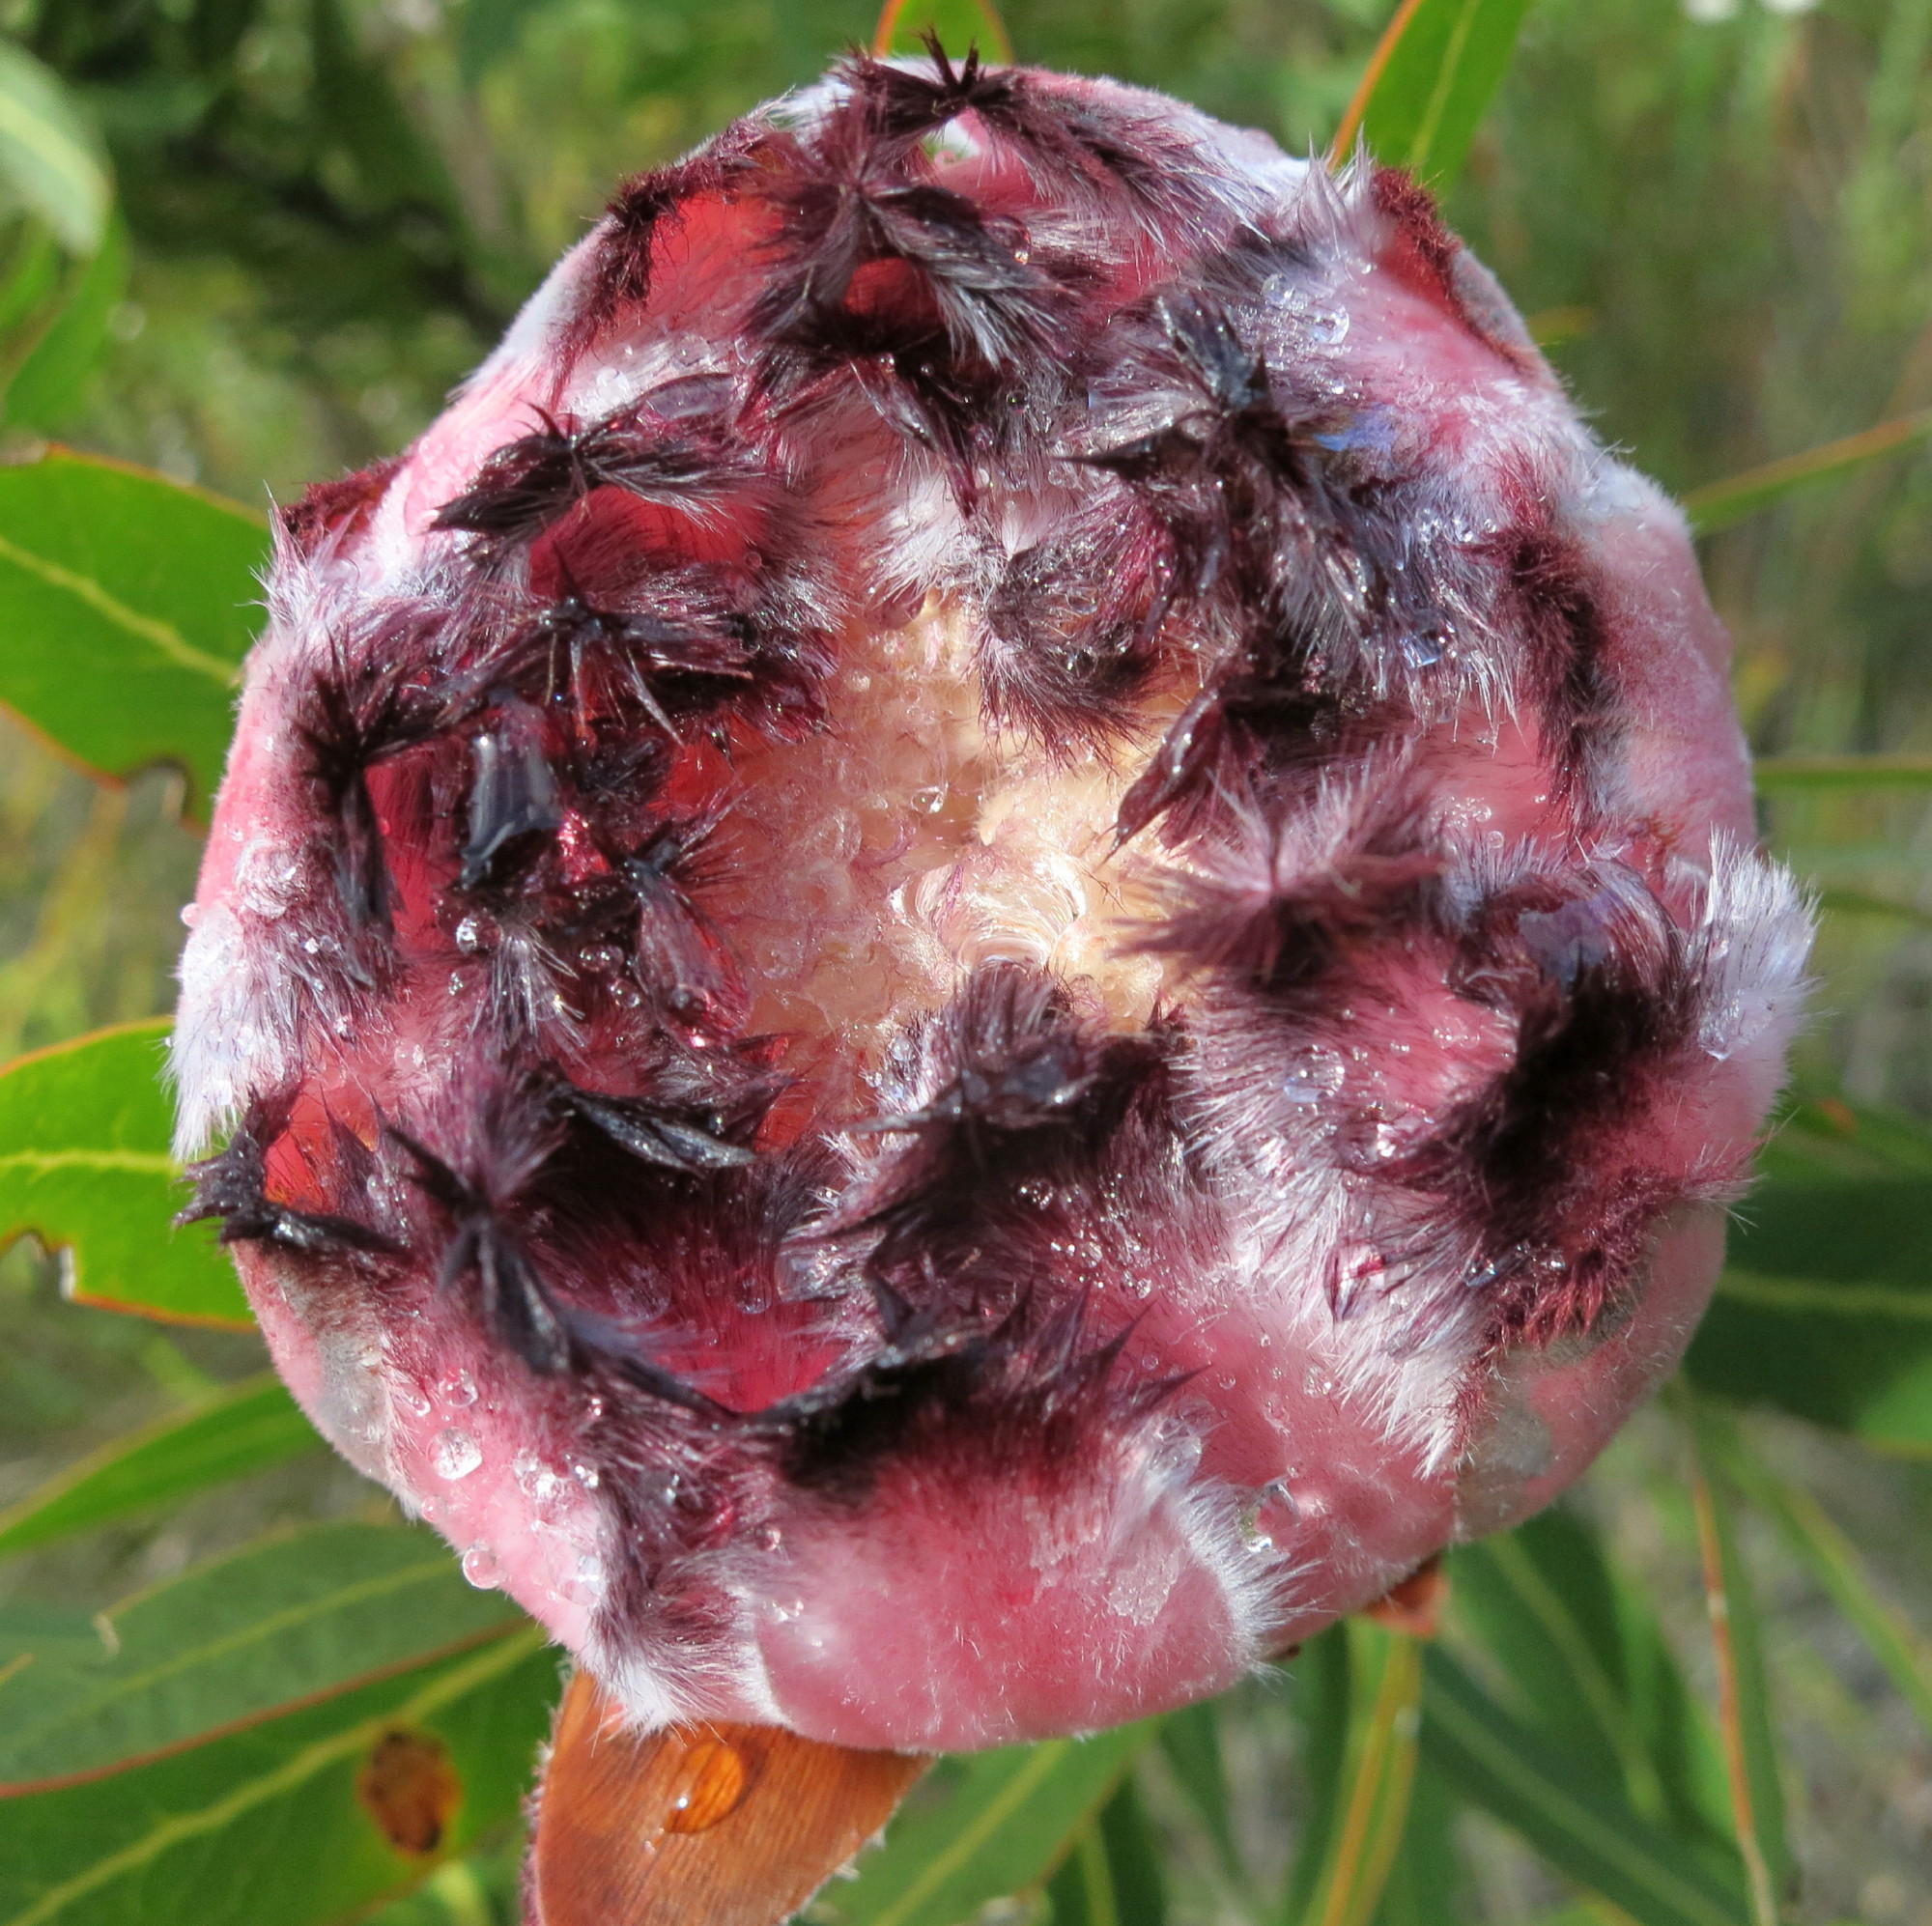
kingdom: Plantae
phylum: Tracheophyta
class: Magnoliopsida
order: Proteales
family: Proteaceae
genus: Protea
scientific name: Protea neriifolia
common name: Blue sugarbush
